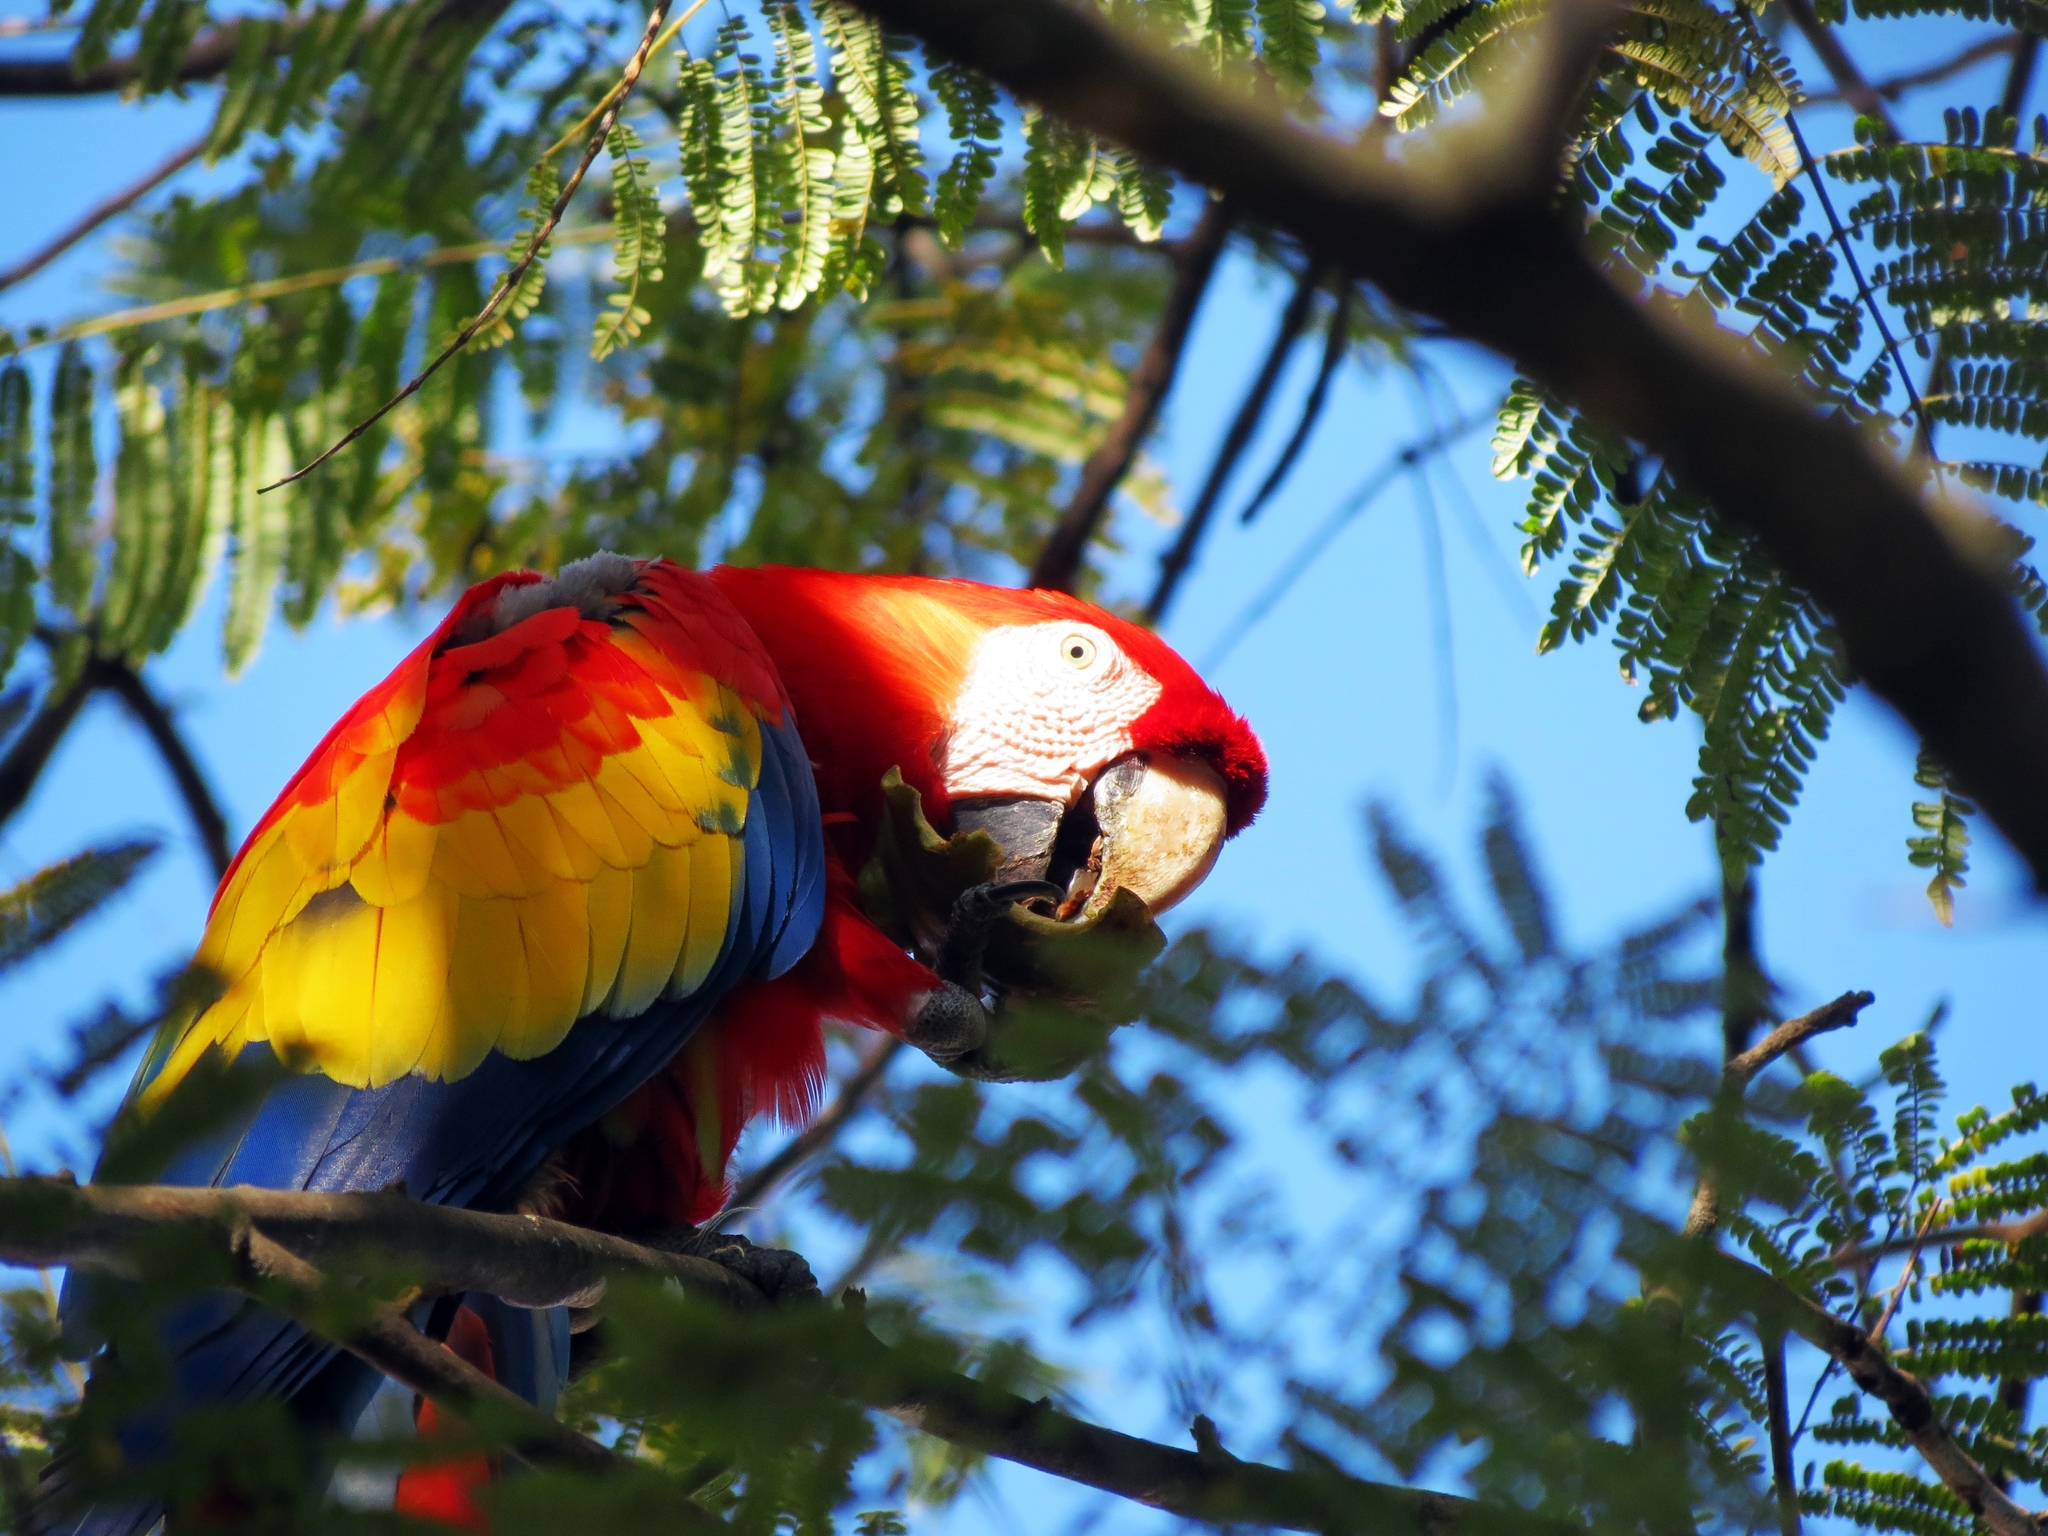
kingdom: Animalia
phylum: Chordata
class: Aves
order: Psittaciformes
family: Psittacidae
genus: Ara
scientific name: Ara macao
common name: Scarlet macaw
